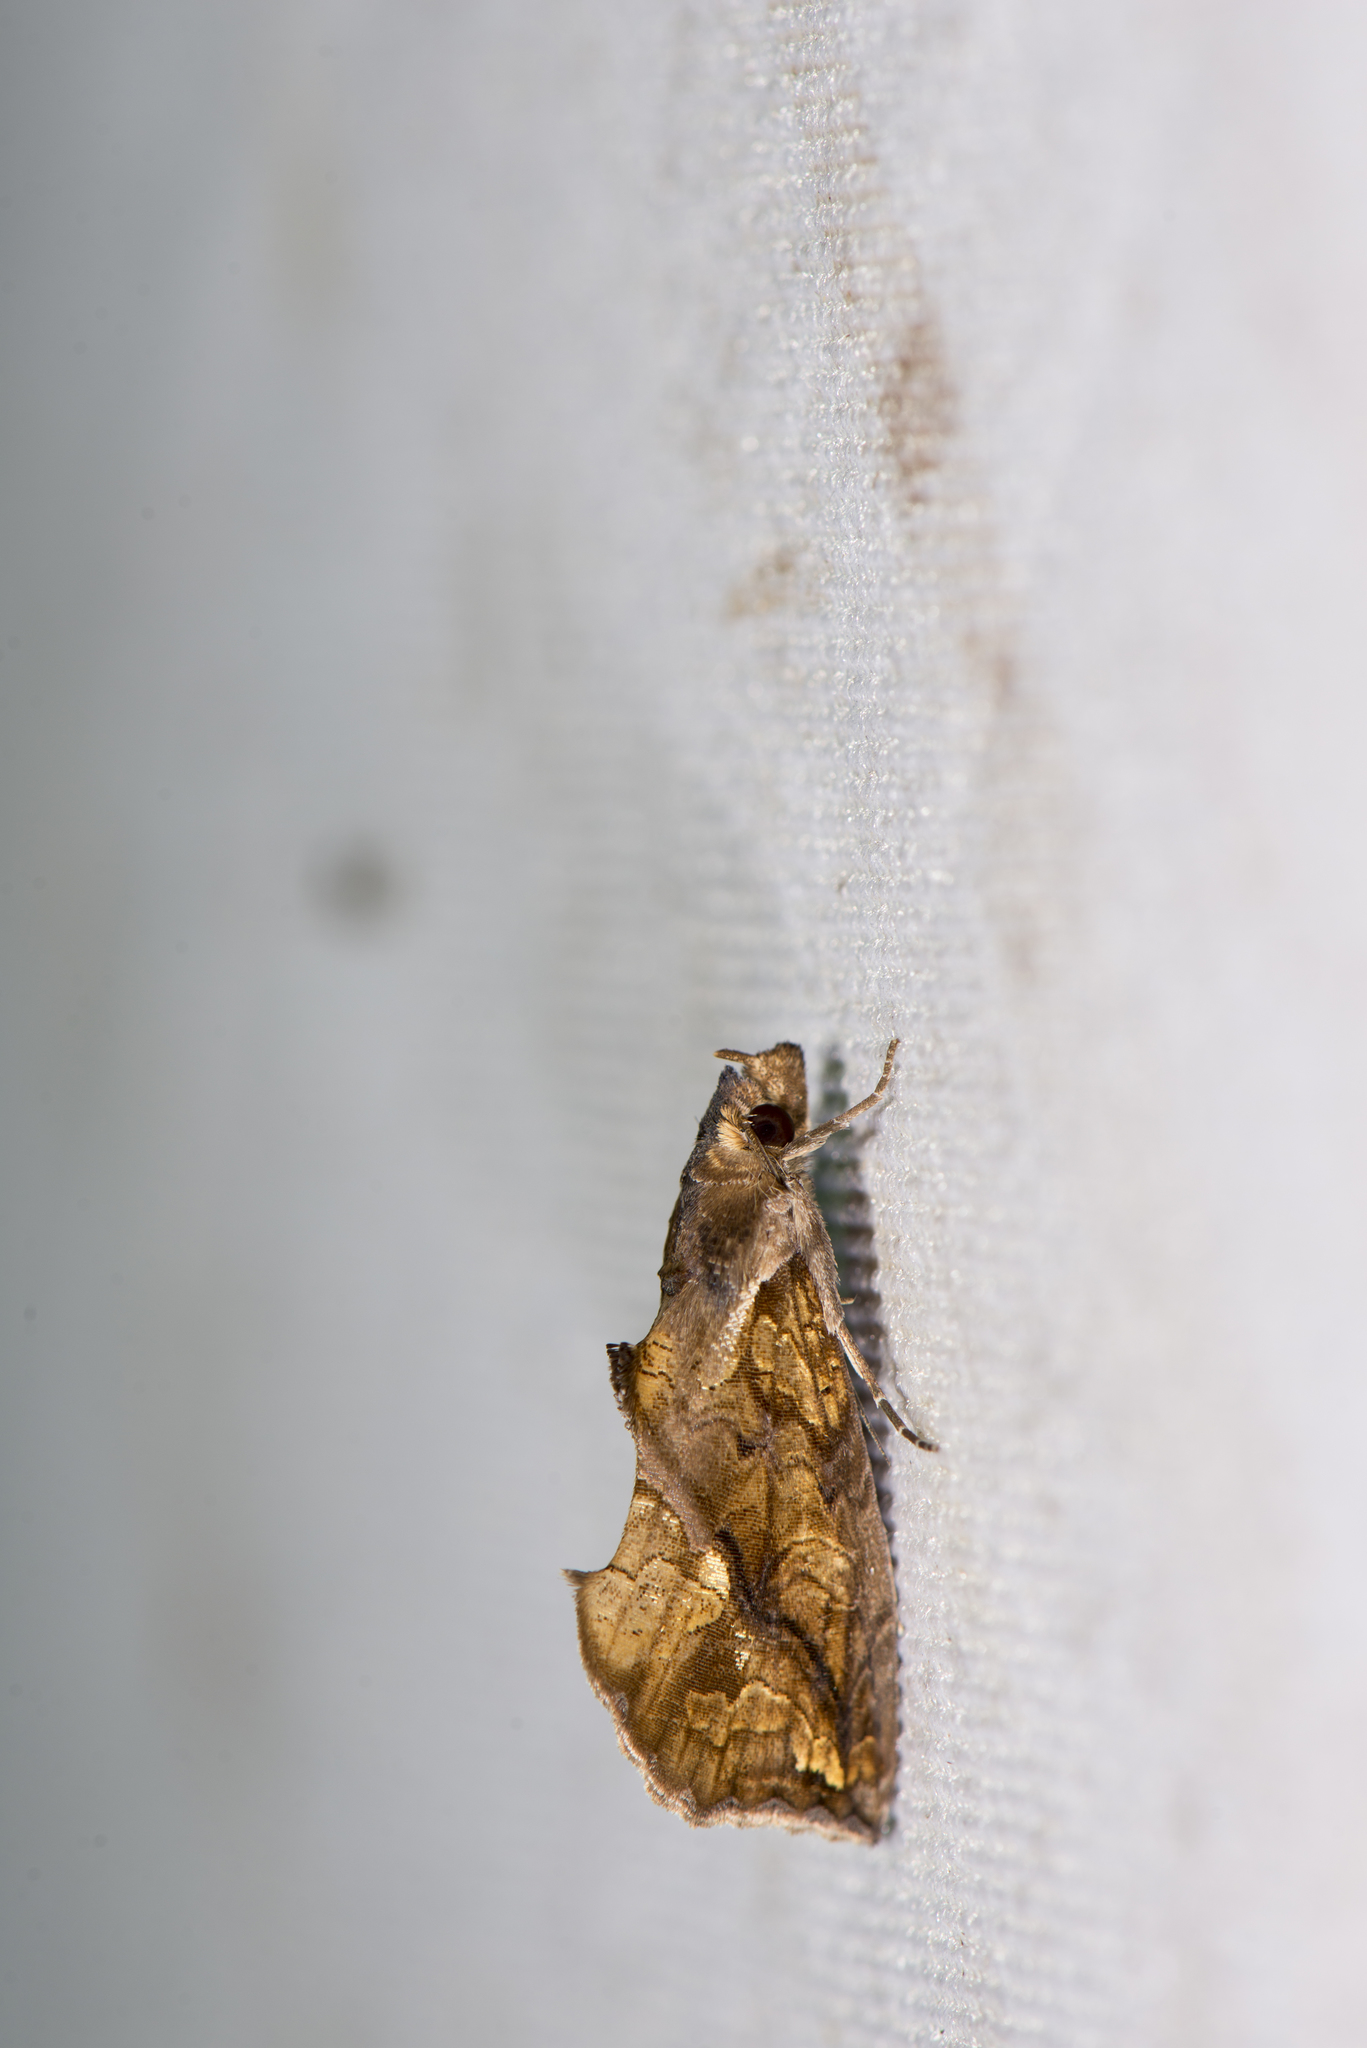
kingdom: Animalia
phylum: Arthropoda
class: Insecta
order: Lepidoptera
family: Erebidae
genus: Plusiodonta
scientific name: Plusiodonta coelonota
